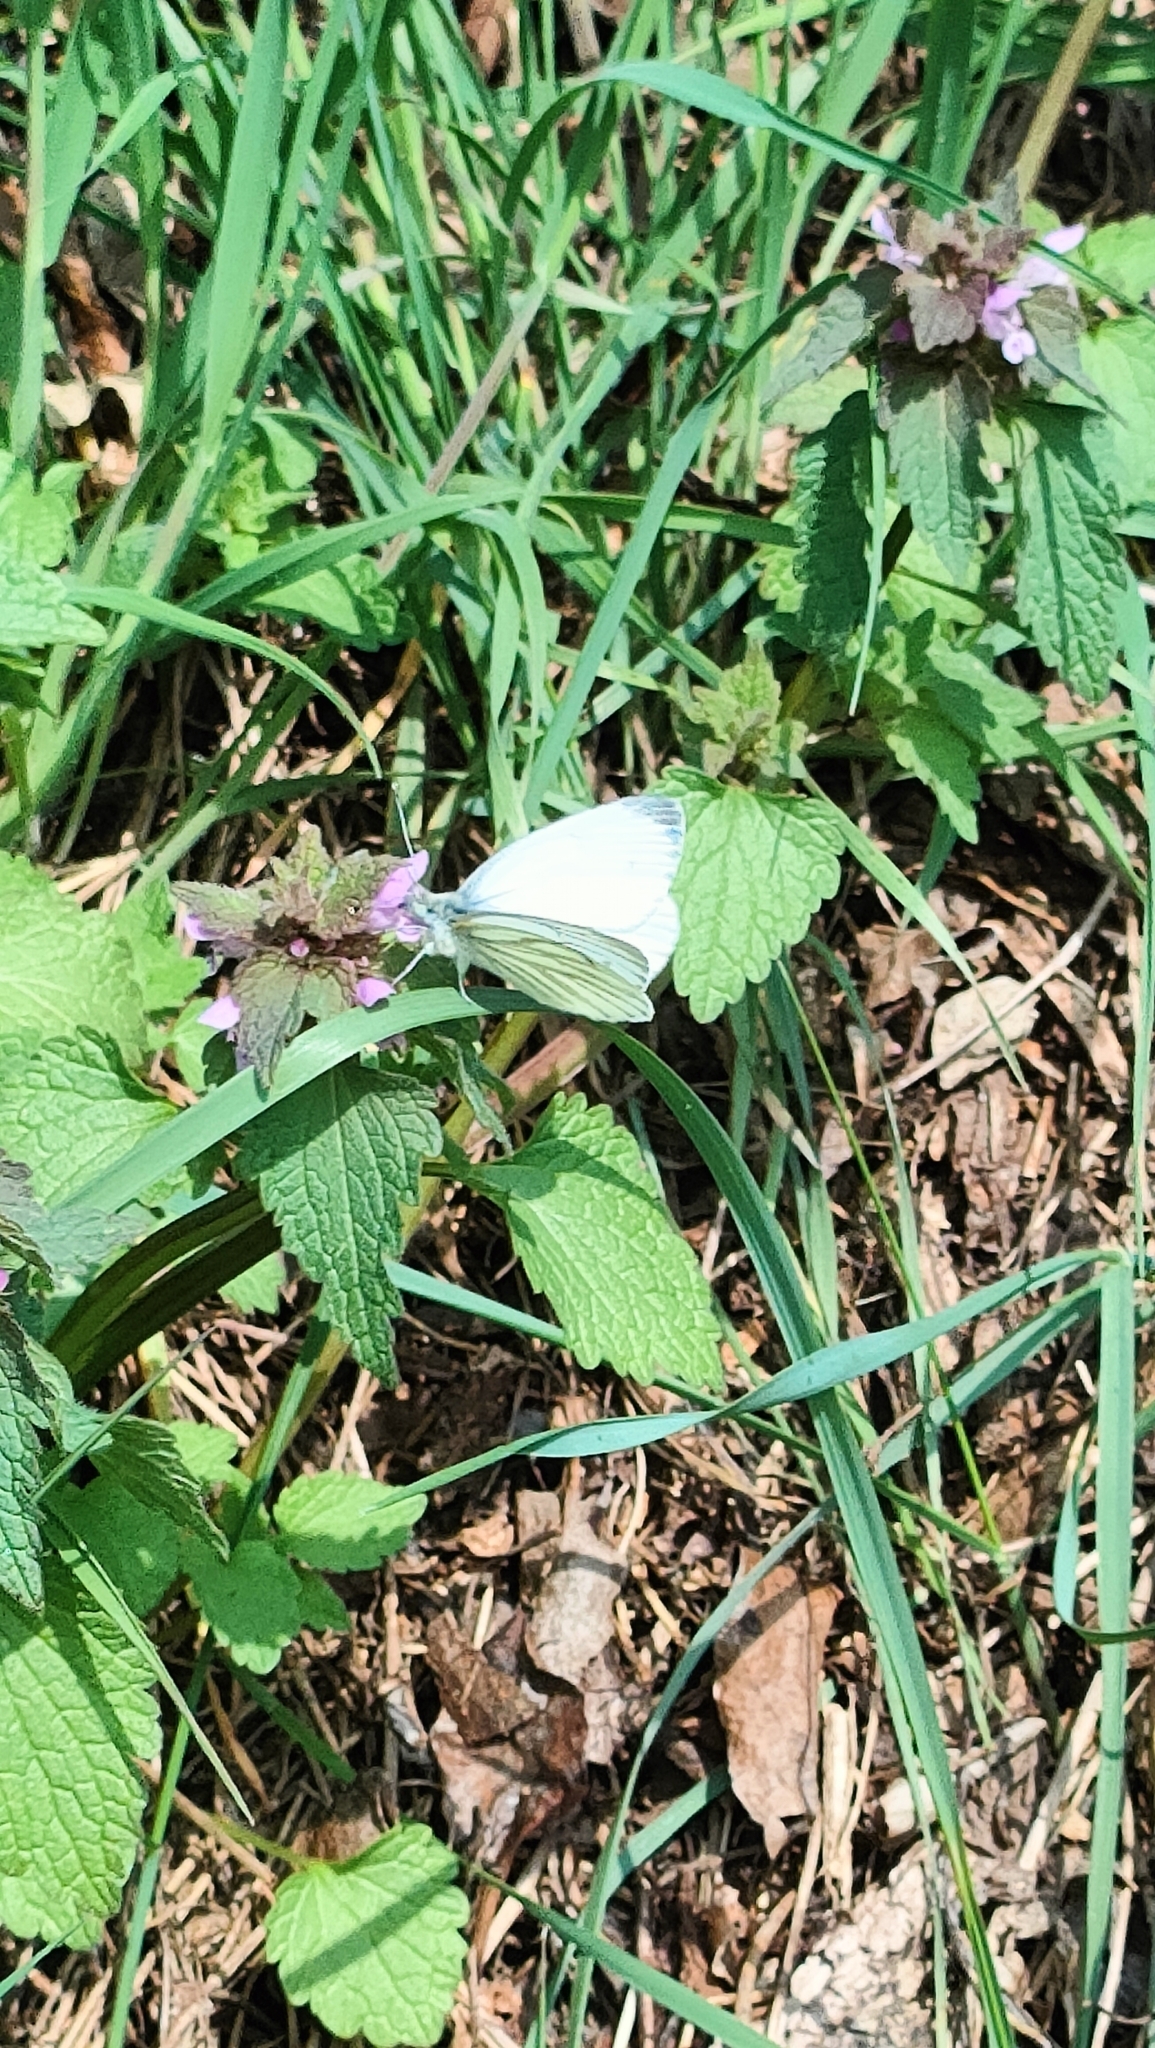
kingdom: Animalia
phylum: Arthropoda
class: Insecta
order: Lepidoptera
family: Pieridae
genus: Pieris
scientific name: Pieris napi
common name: Green-veined white
